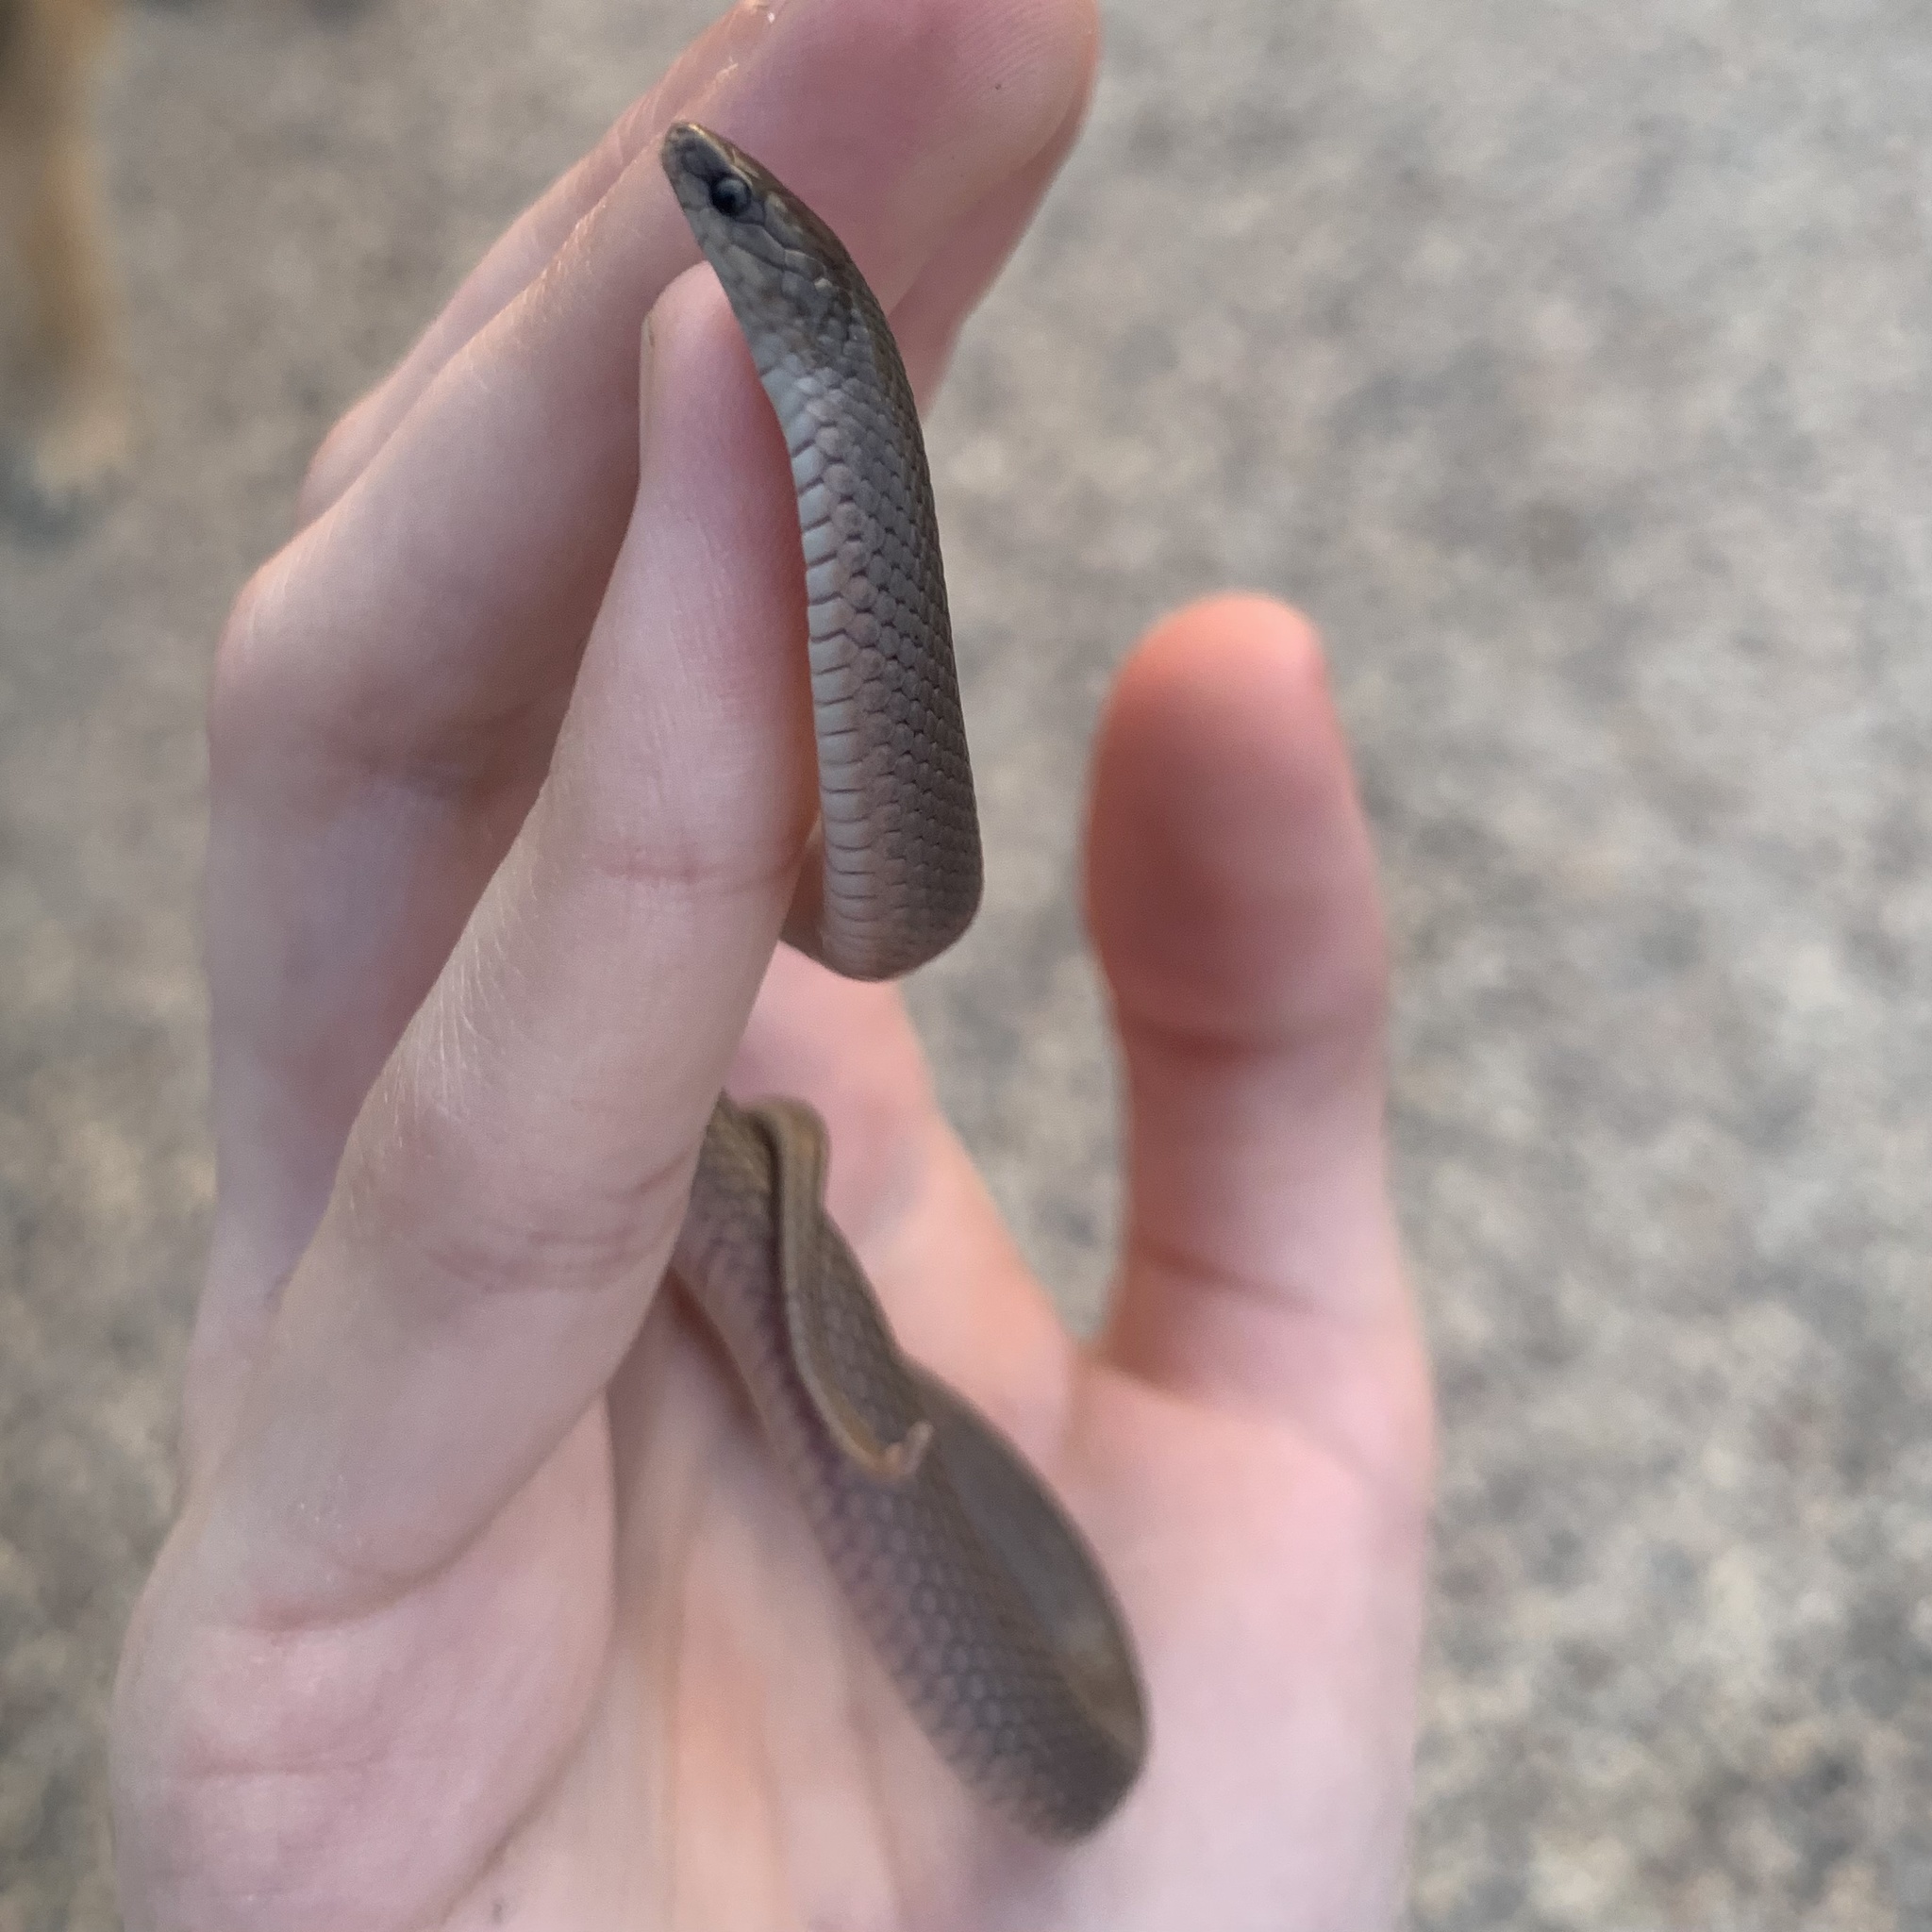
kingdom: Animalia
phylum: Chordata
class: Squamata
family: Colubridae
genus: Haldea
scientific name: Haldea striatula
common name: Rough earth snake
